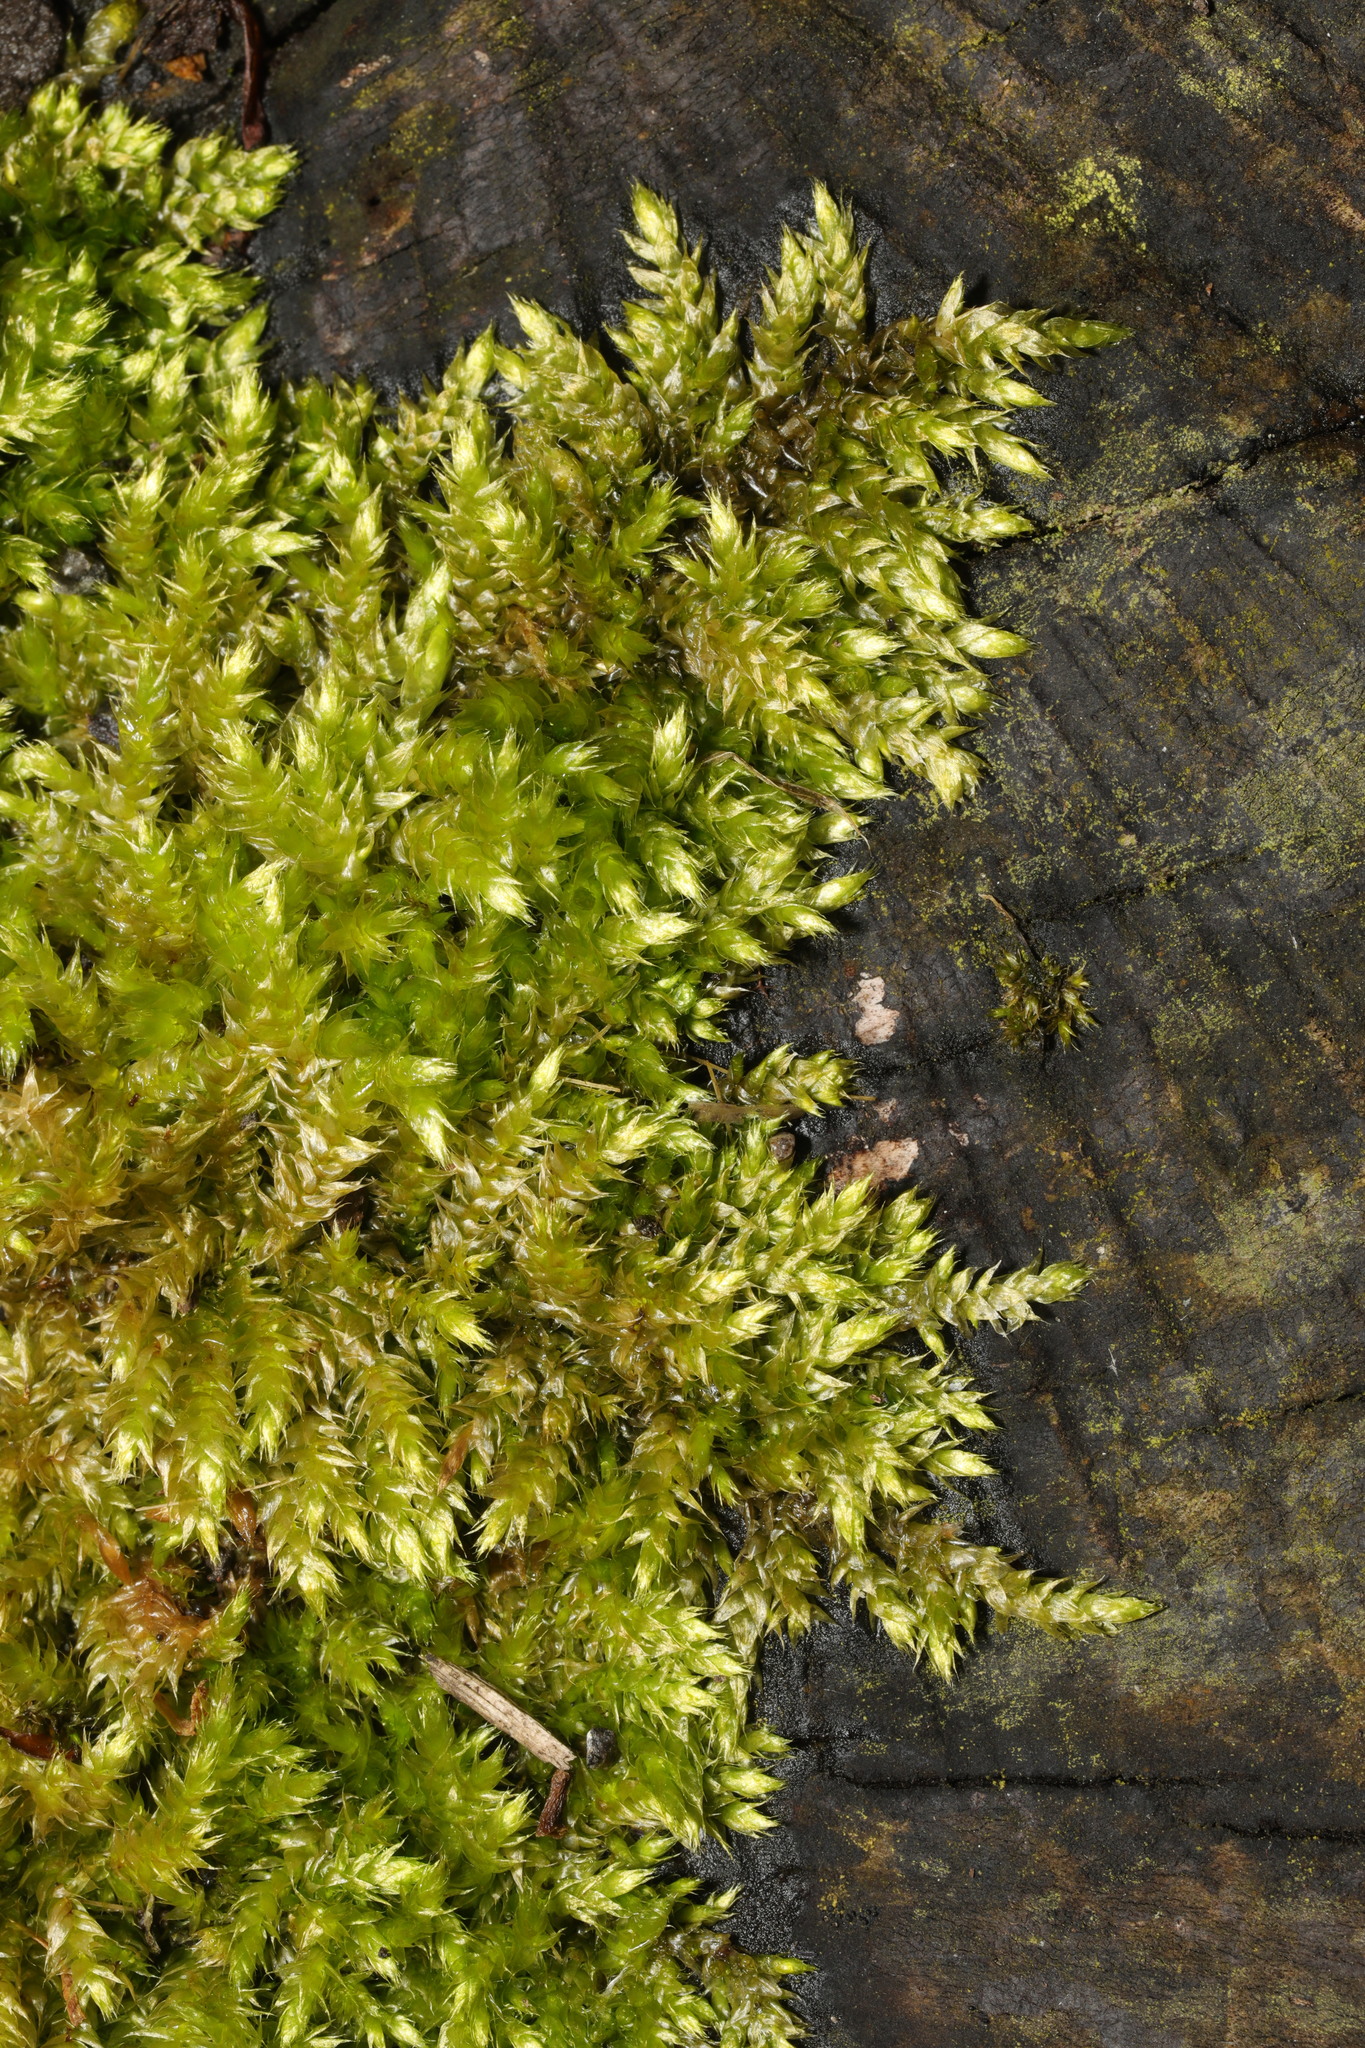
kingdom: Plantae
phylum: Bryophyta
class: Bryopsida
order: Hypnales
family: Brachytheciaceae
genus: Brachythecium
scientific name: Brachythecium rutabulum
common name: Rough-stalked feather-moss
